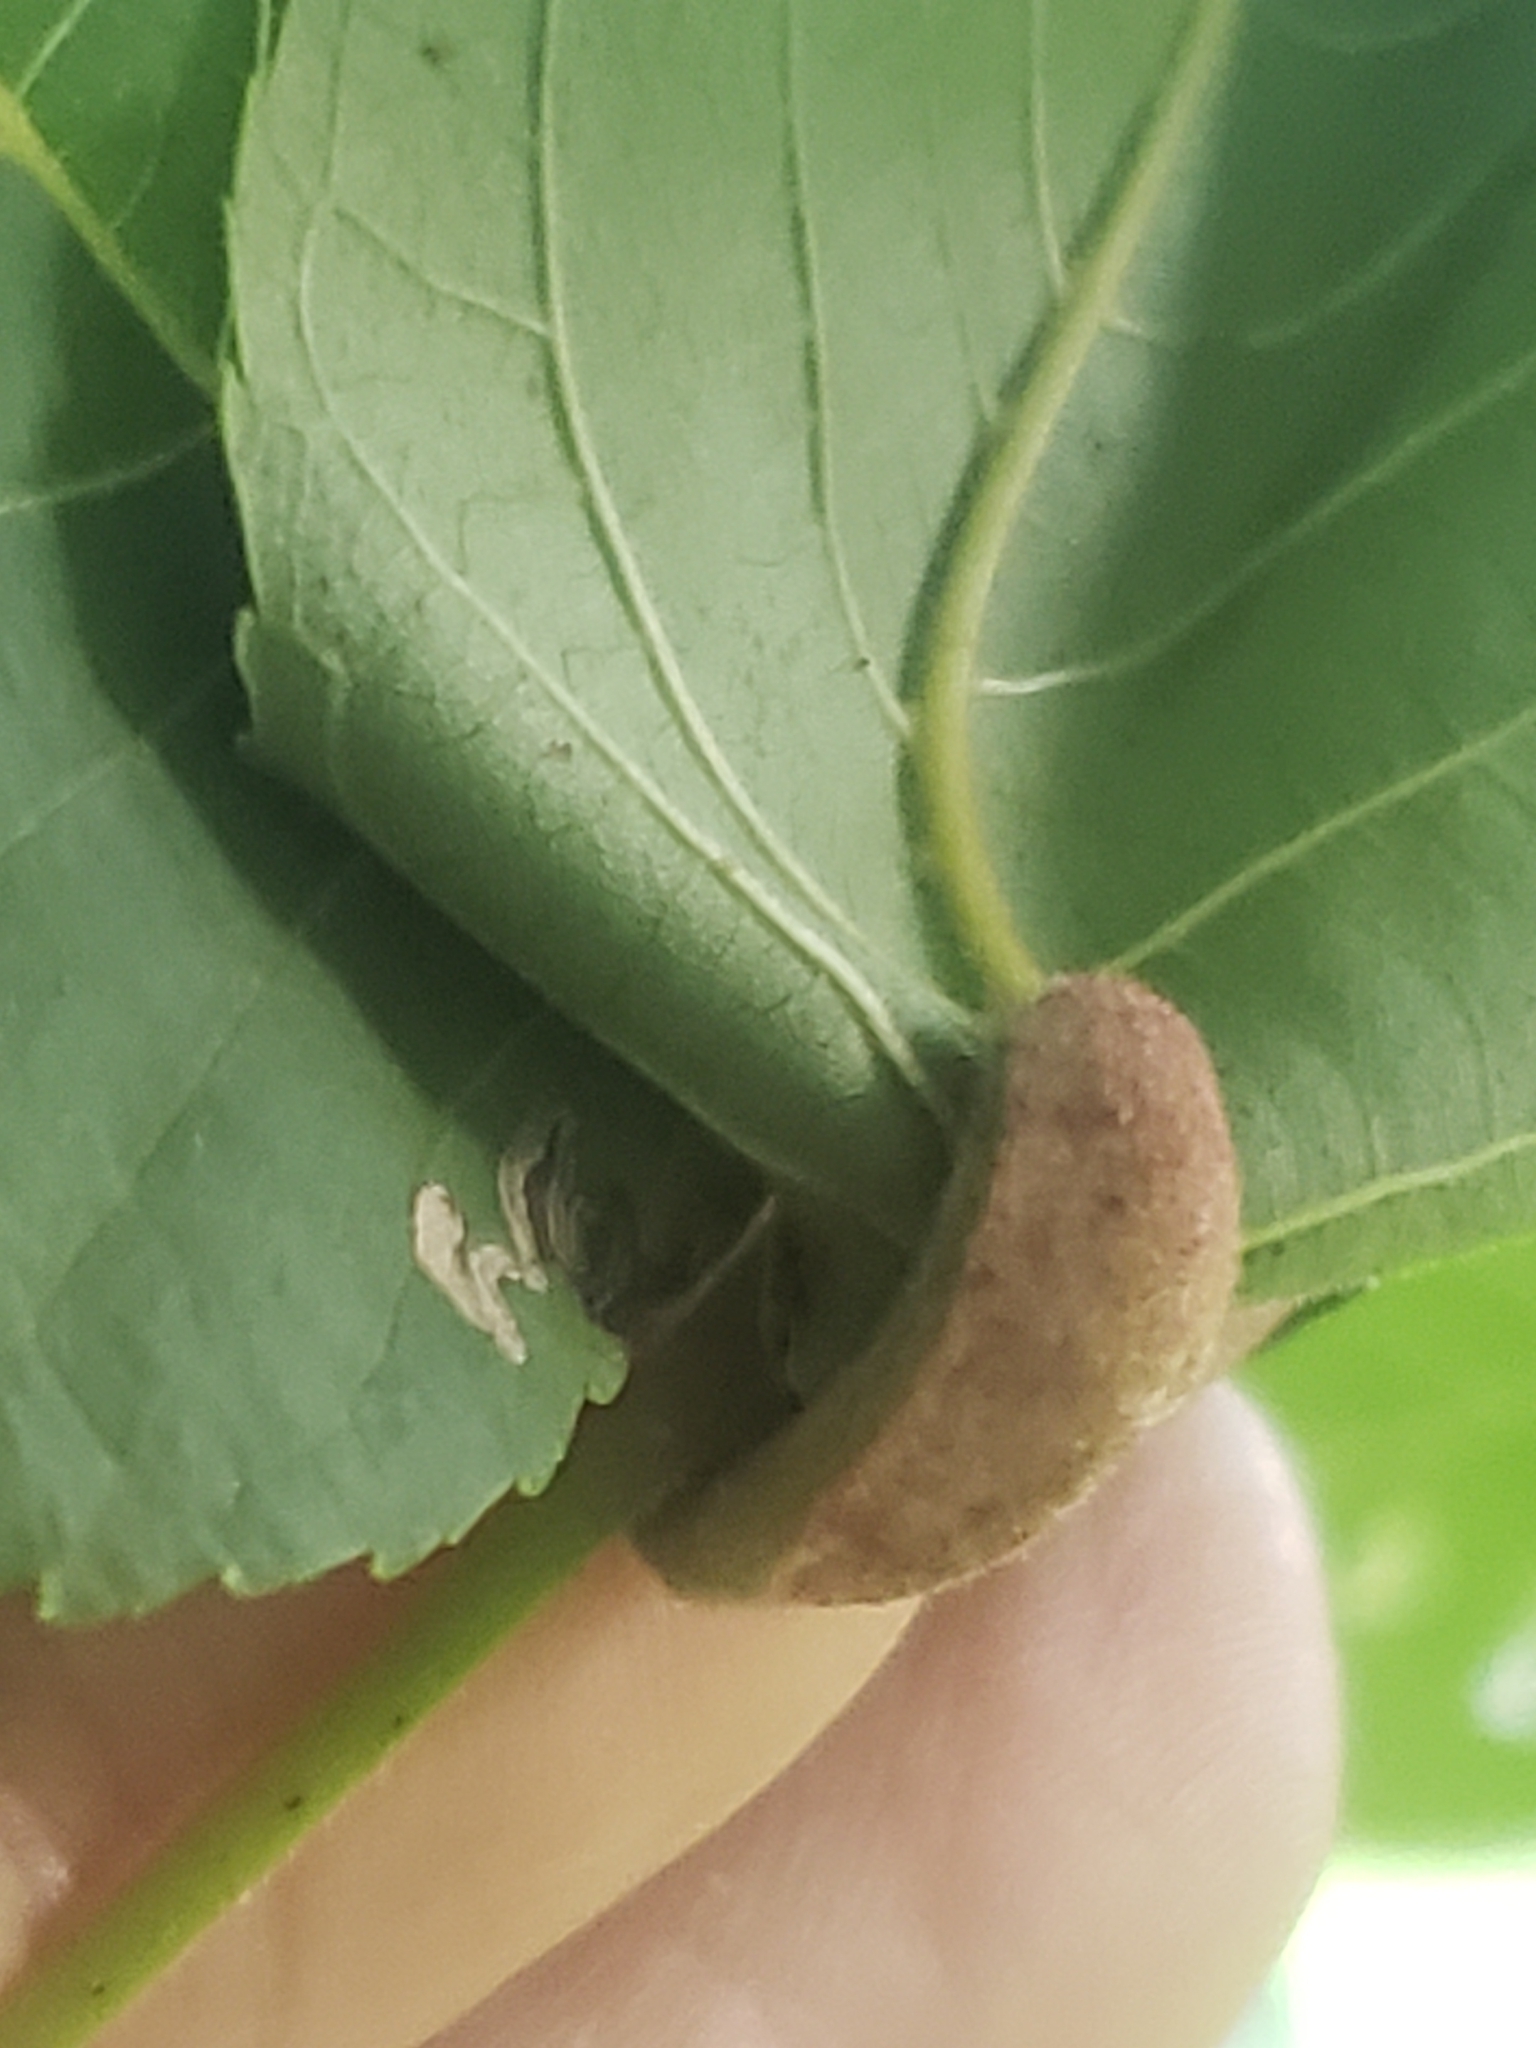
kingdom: Animalia
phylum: Arthropoda
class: Arachnida
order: Trombidiformes
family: Eriophyidae
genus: Aceria
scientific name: Aceria
